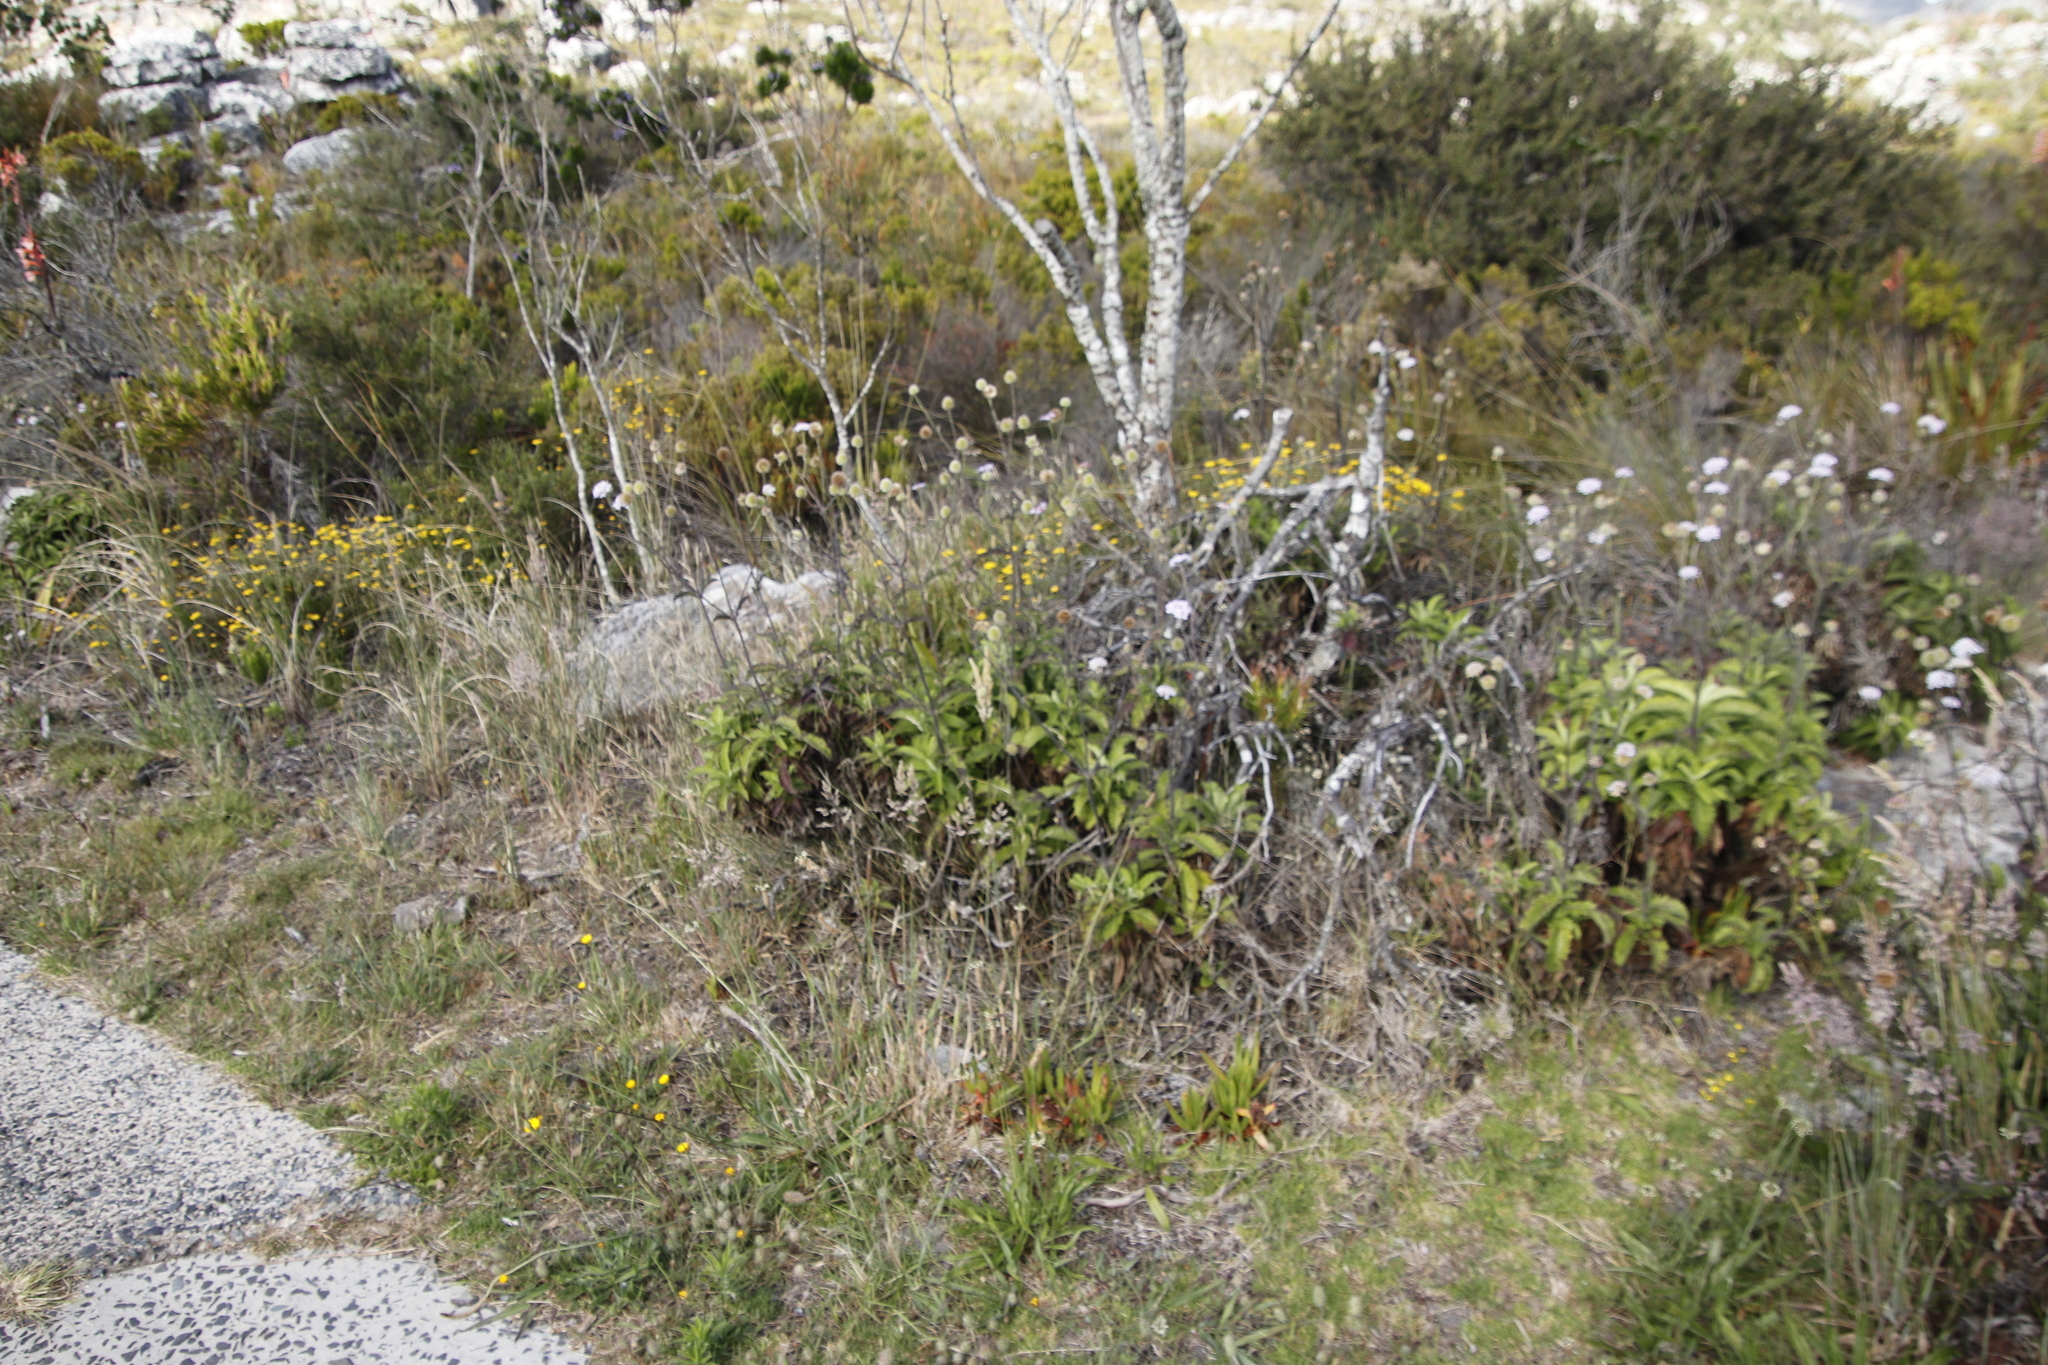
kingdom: Plantae
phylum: Tracheophyta
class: Magnoliopsida
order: Dipsacales
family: Caprifoliaceae
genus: Scabiosa
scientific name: Scabiosa africana
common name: Cape scabious
